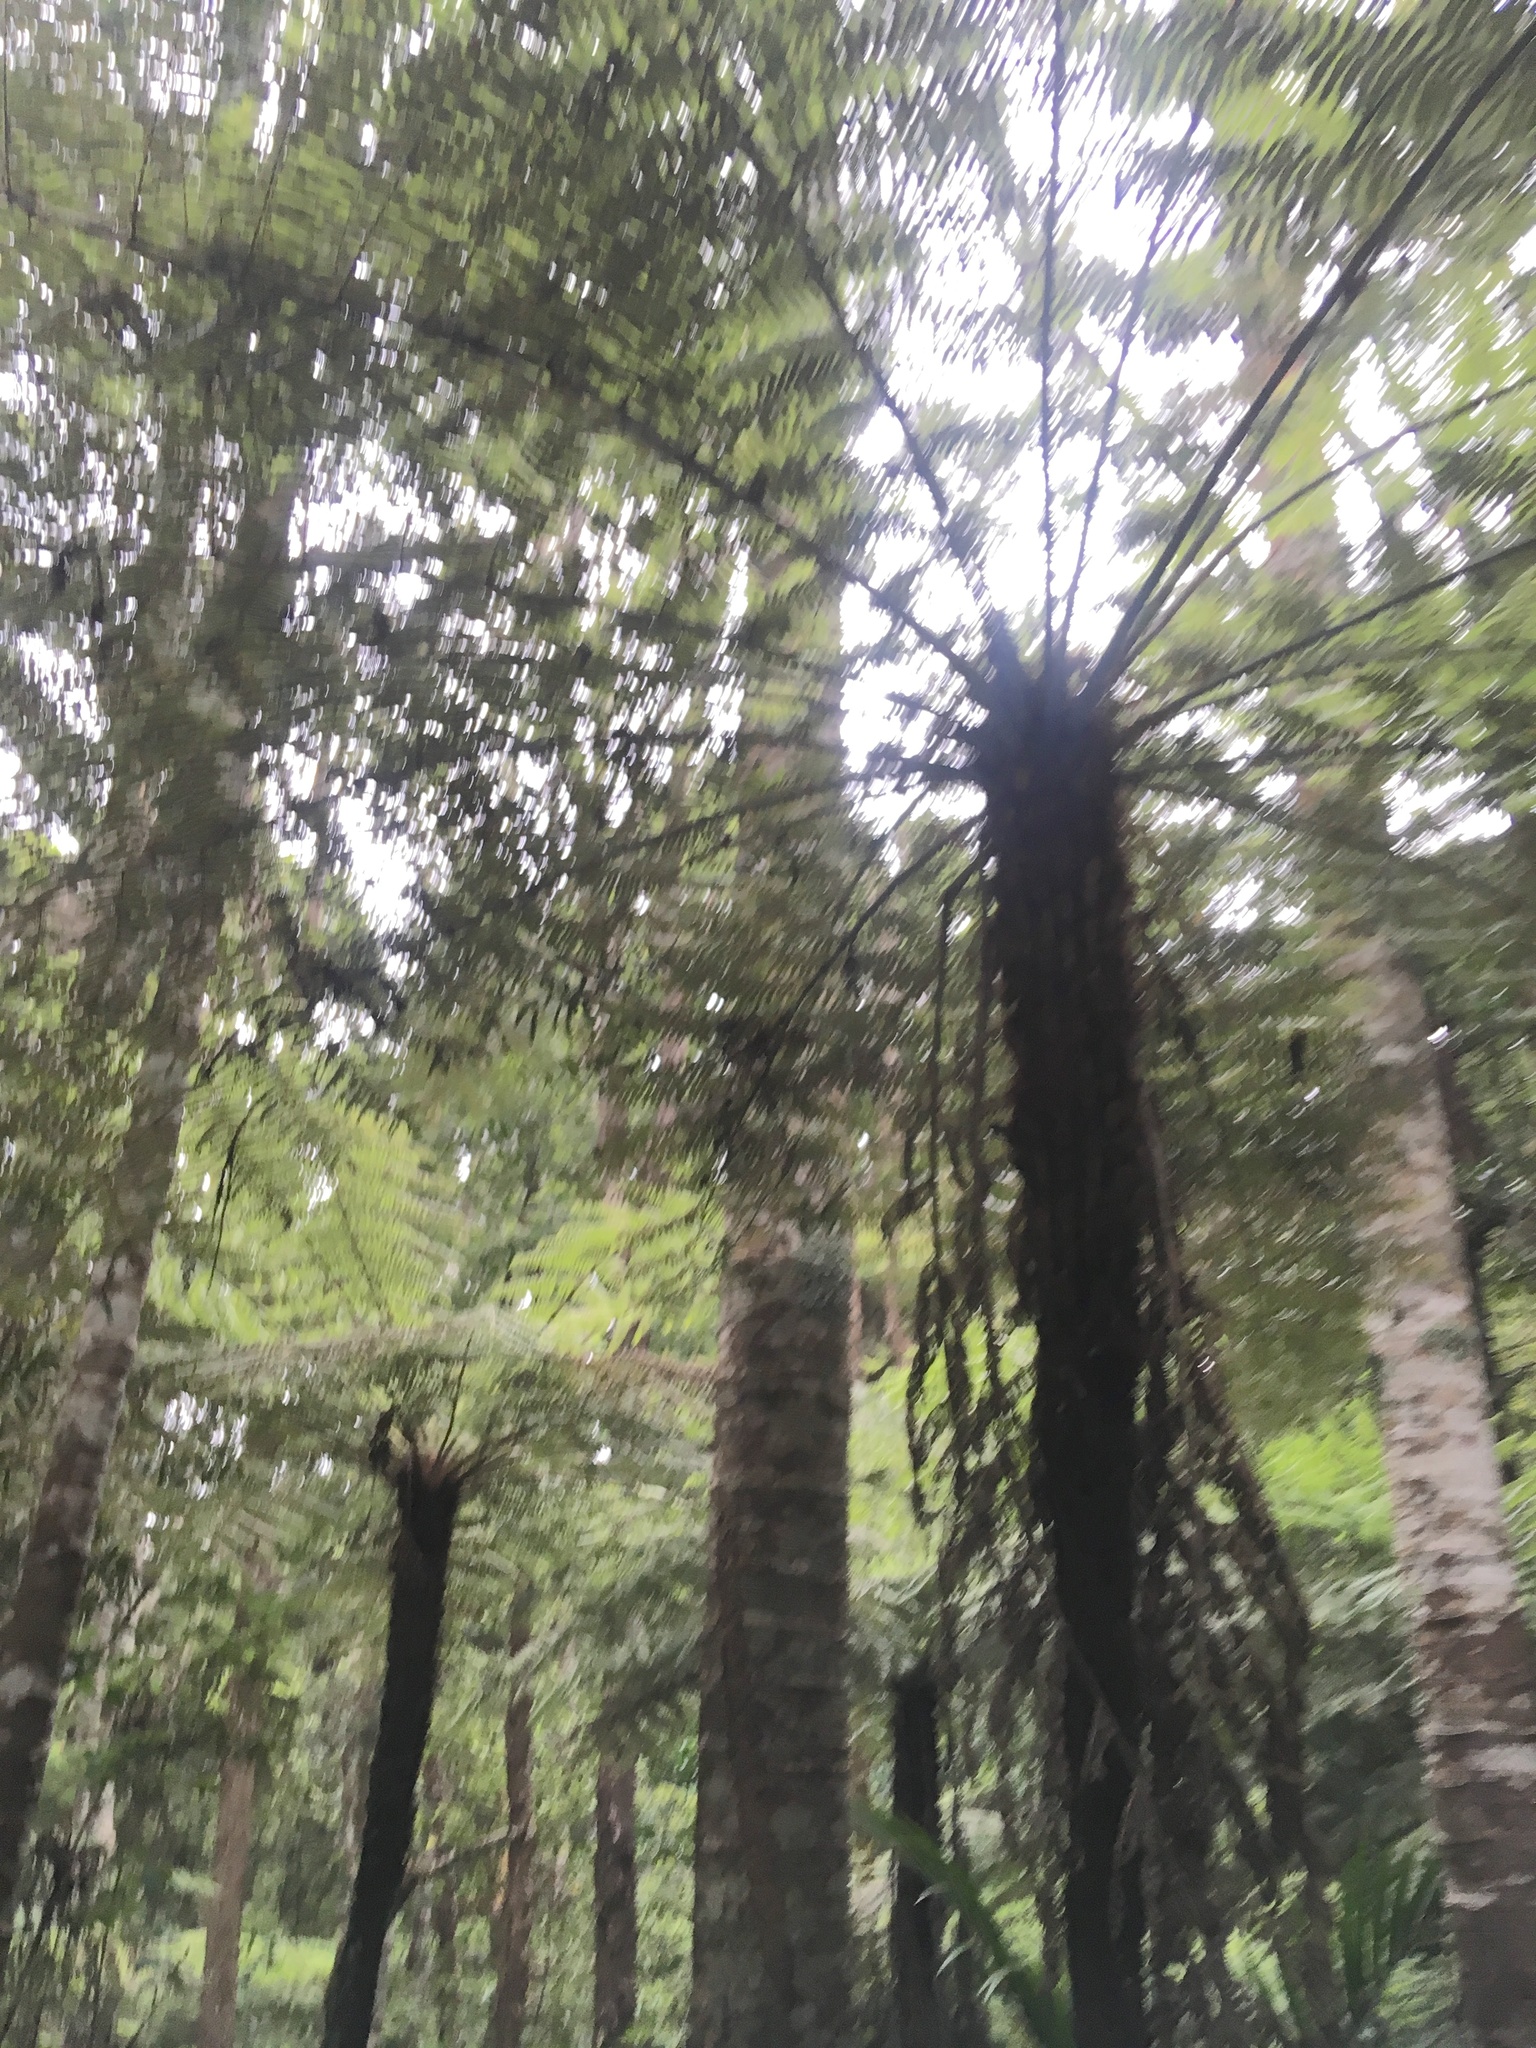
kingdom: Plantae
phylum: Tracheophyta
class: Pinopsida
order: Pinales
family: Araucariaceae
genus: Agathis
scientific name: Agathis australis
